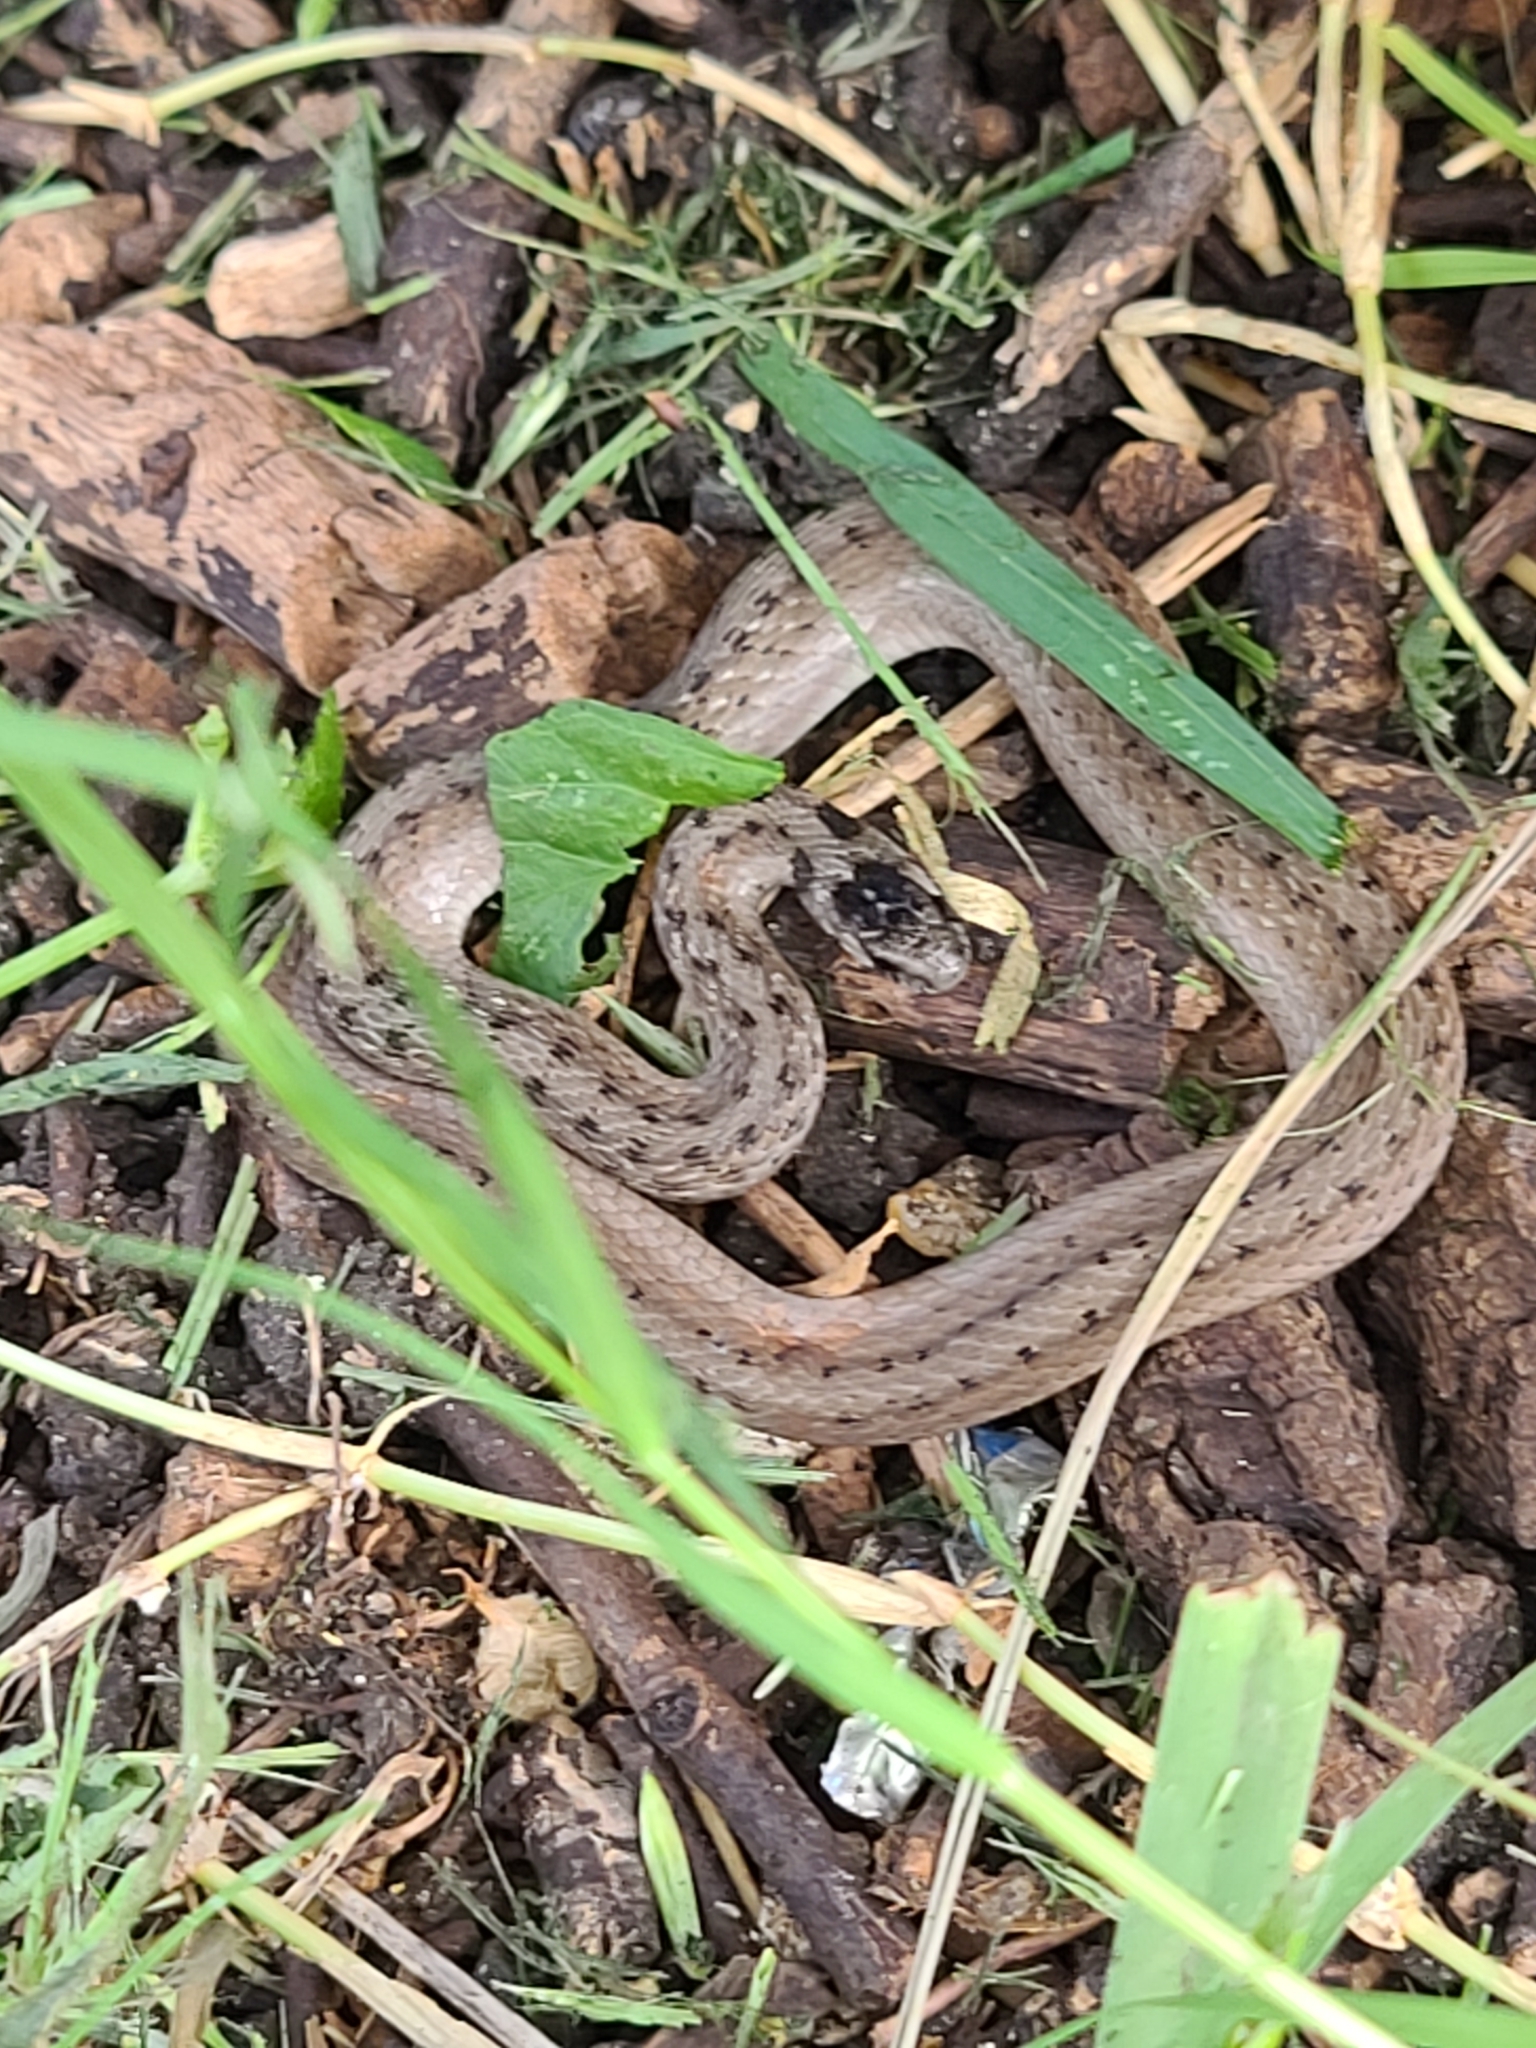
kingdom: Animalia
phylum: Chordata
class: Squamata
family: Colubridae
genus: Storeria
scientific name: Storeria dekayi
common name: (dekay’s) brown snake
